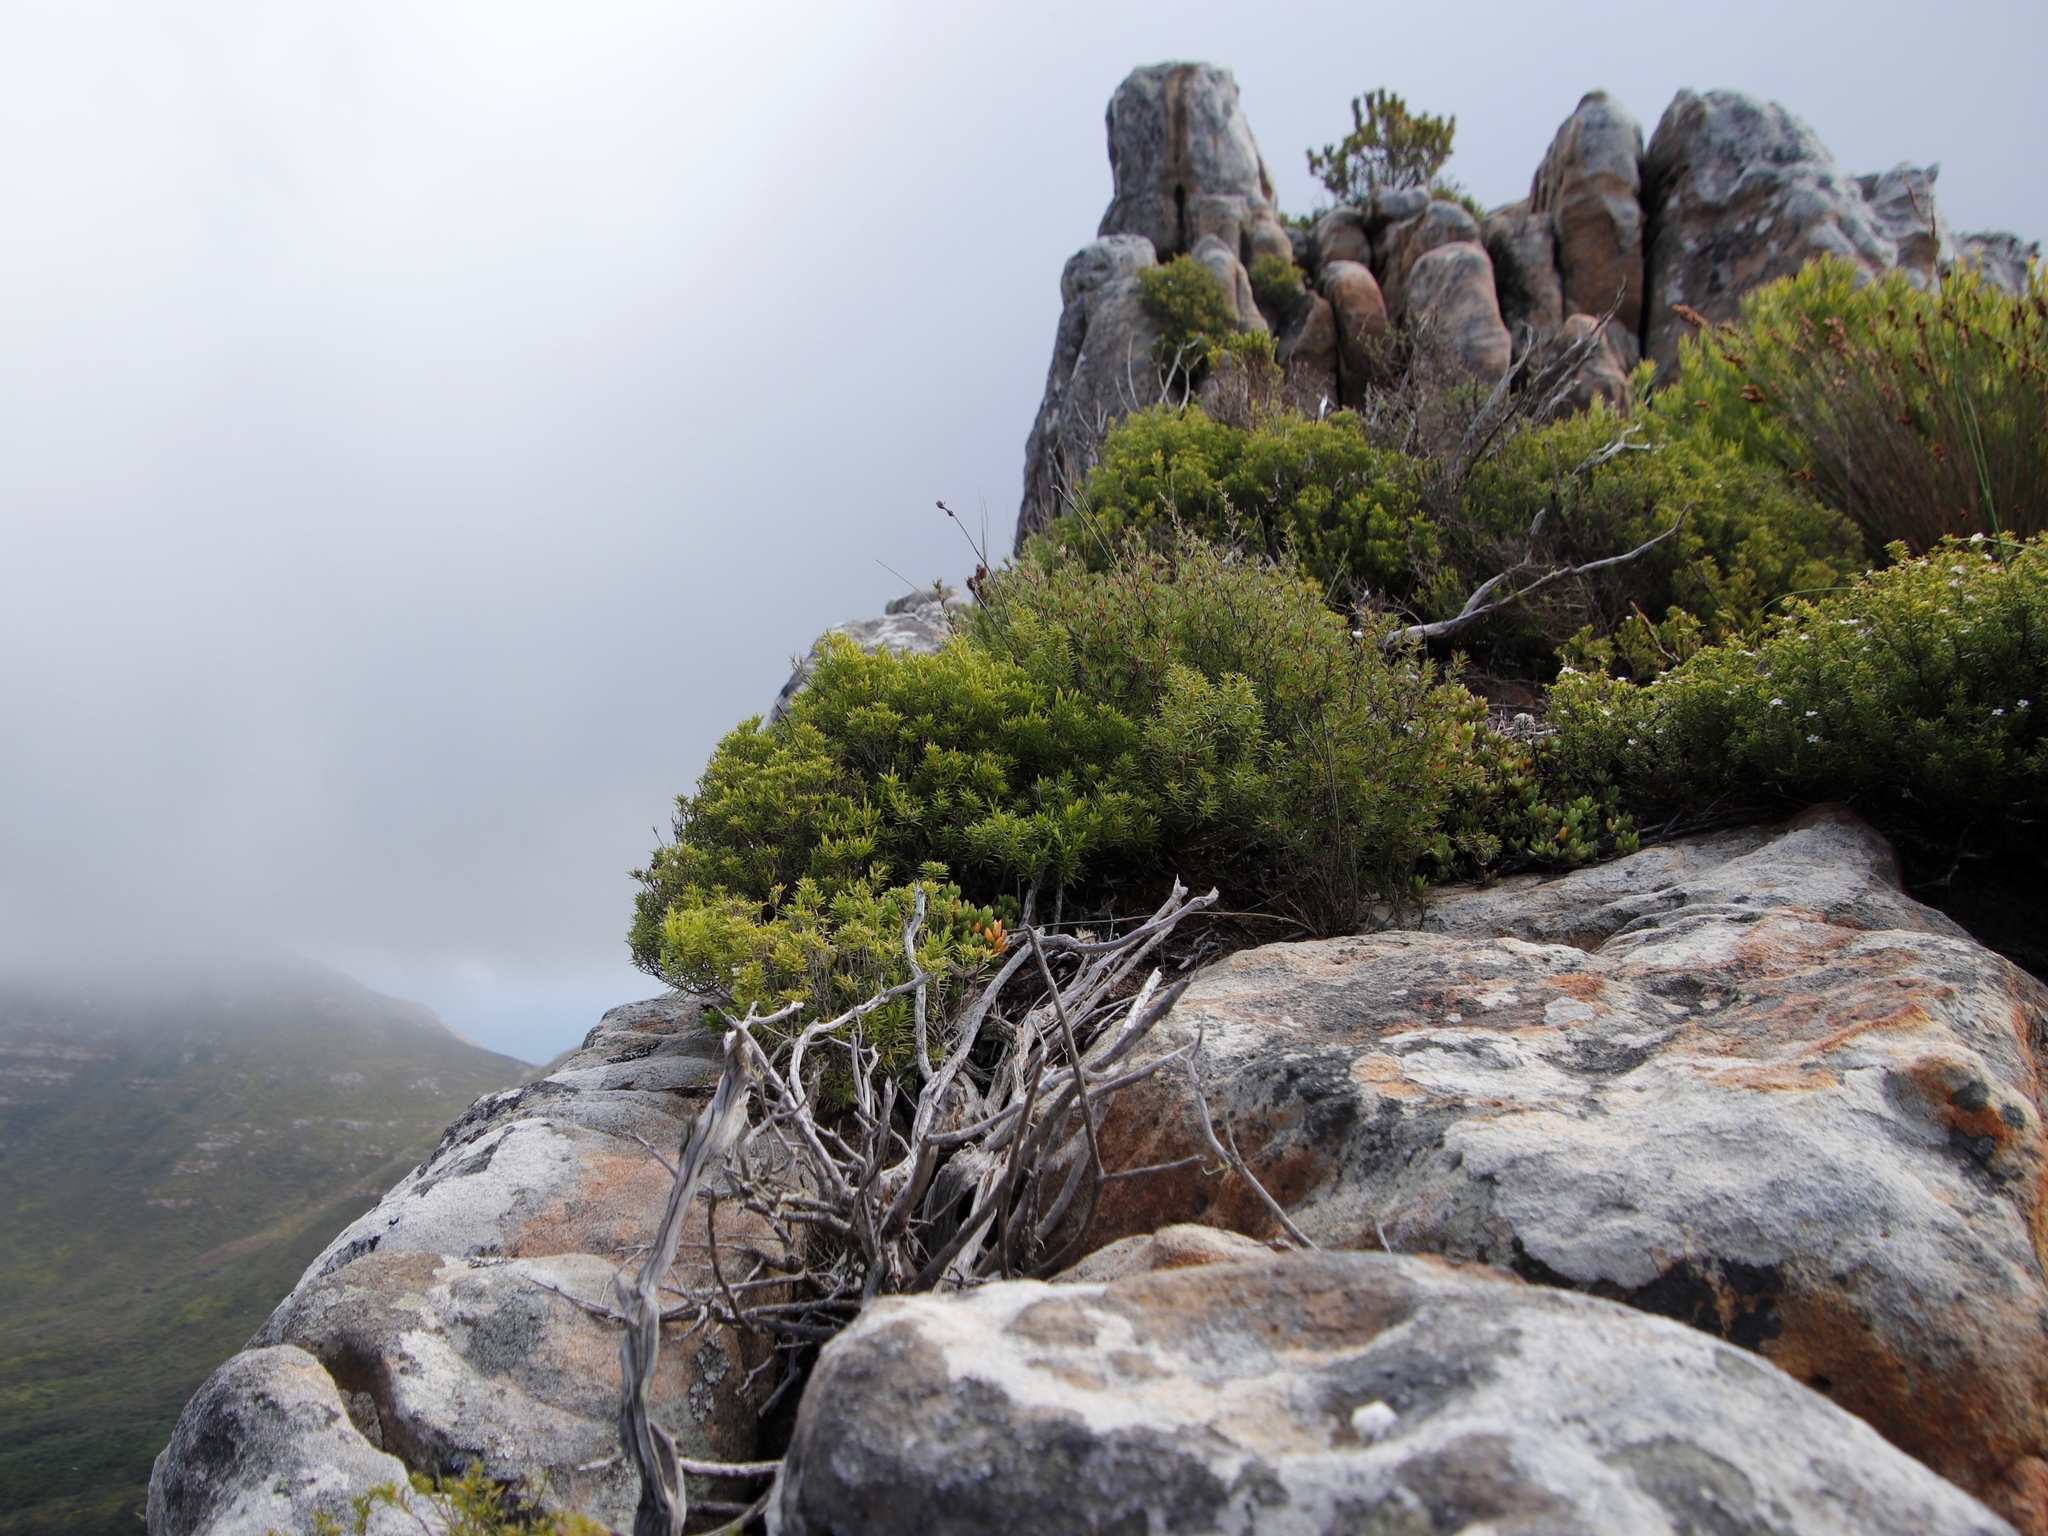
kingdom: Plantae
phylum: Tracheophyta
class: Magnoliopsida
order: Sapindales
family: Rutaceae
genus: Coleonema
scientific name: Coleonema album
